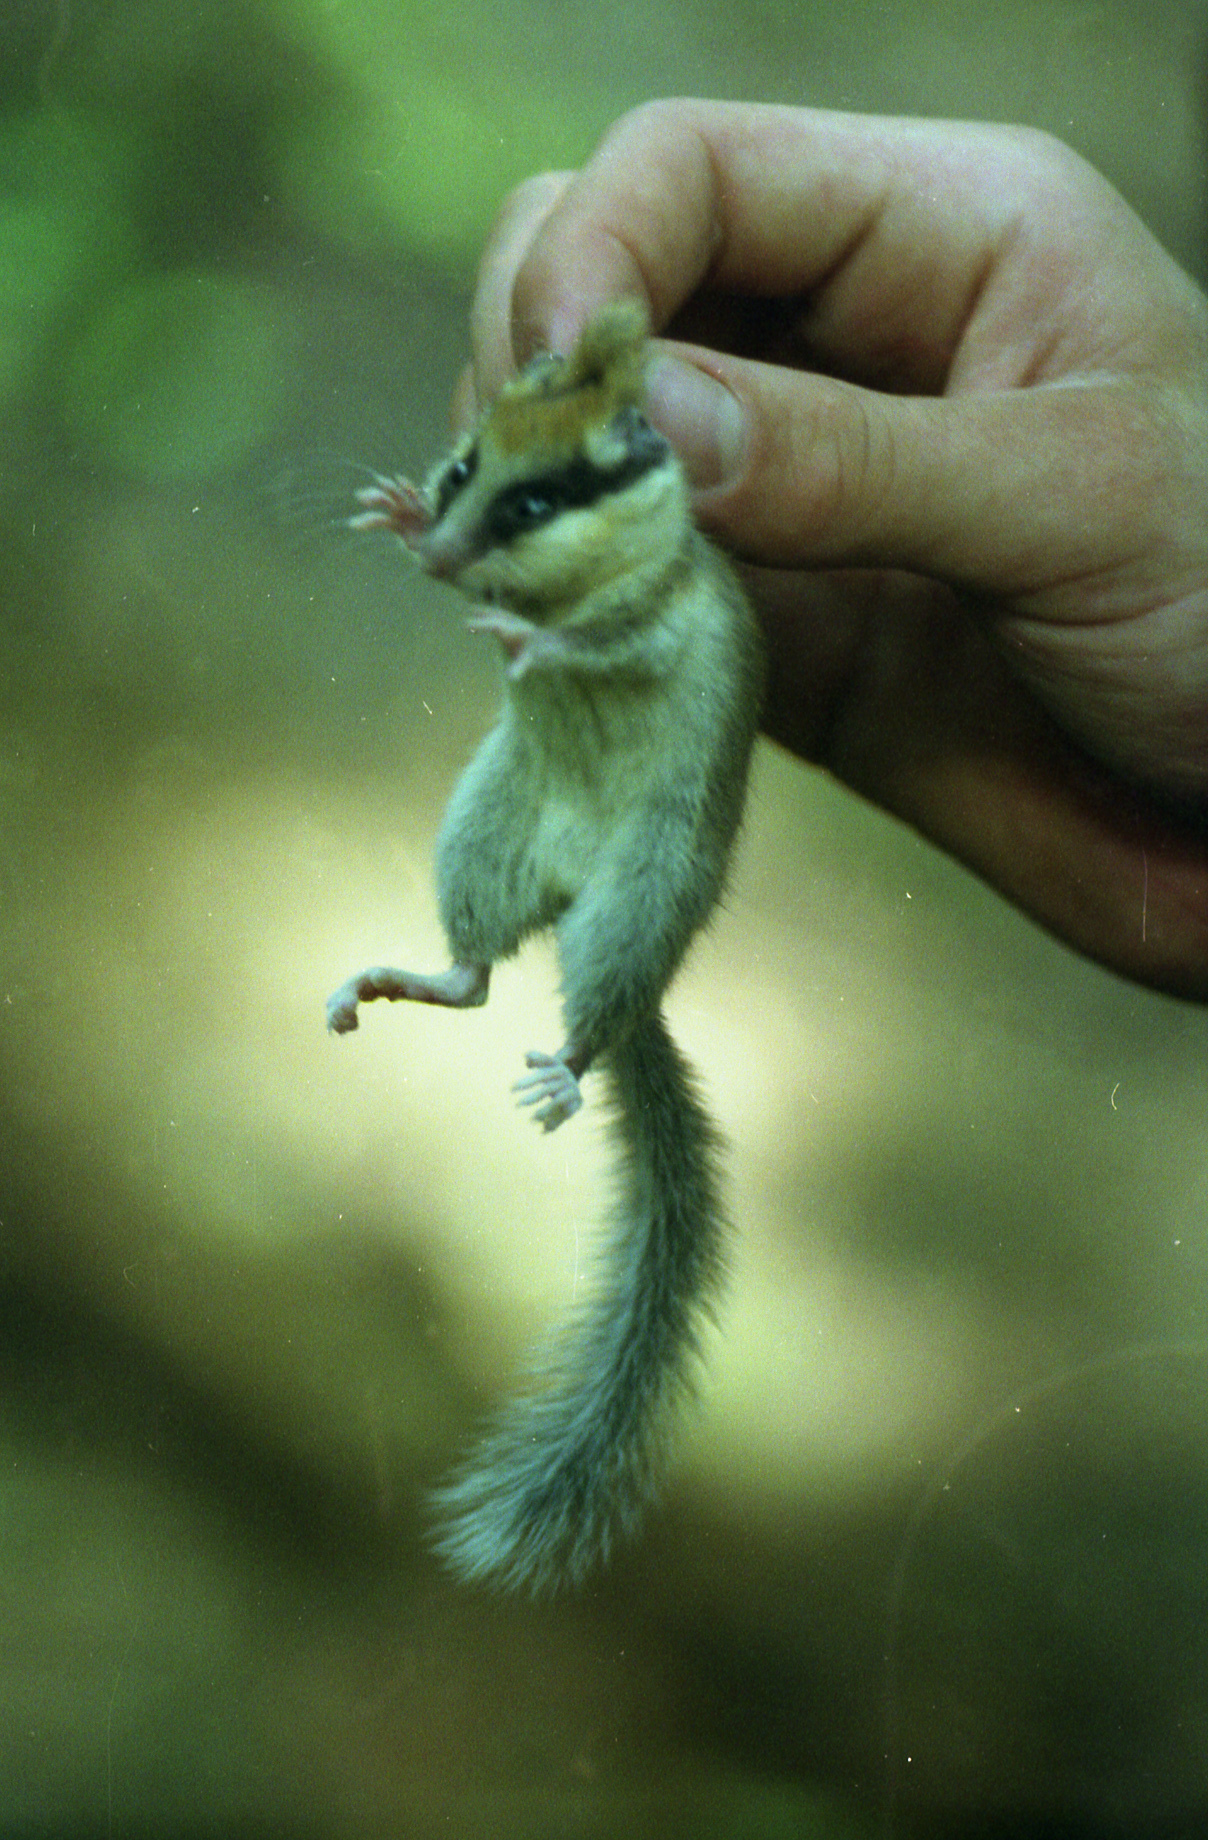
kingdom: Animalia
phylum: Chordata
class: Mammalia
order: Rodentia
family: Gliridae
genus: Dryomys
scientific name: Dryomys nitedula
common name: Forest dormouse
